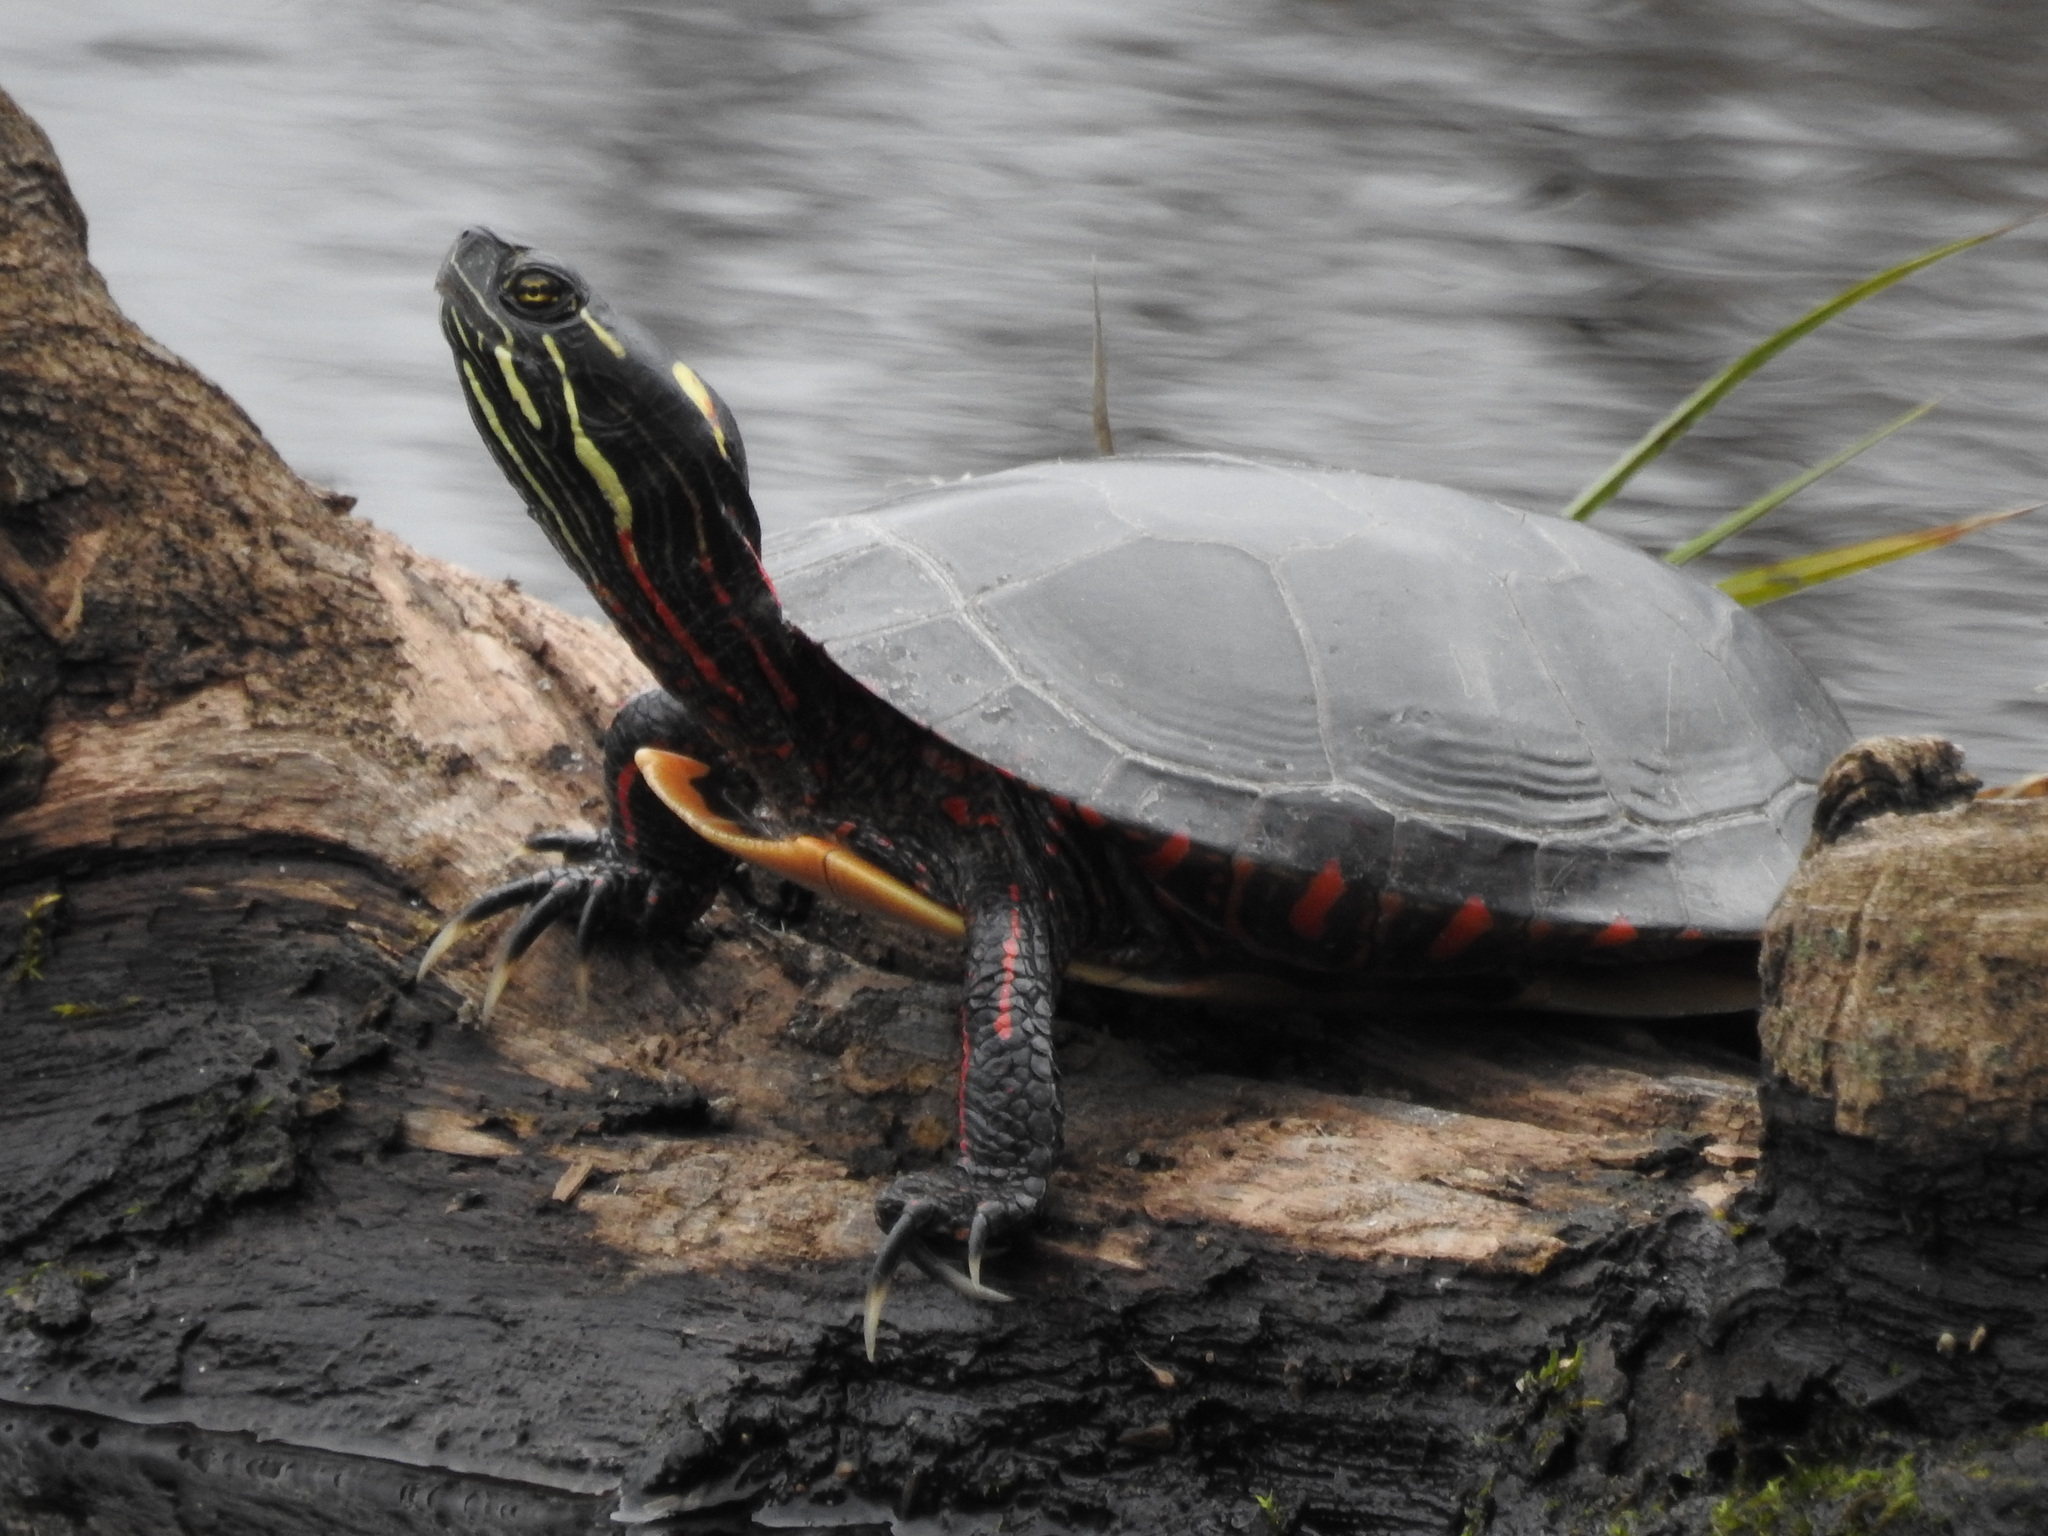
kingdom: Animalia
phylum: Chordata
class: Testudines
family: Emydidae
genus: Chrysemys
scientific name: Chrysemys picta
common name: Painted turtle
